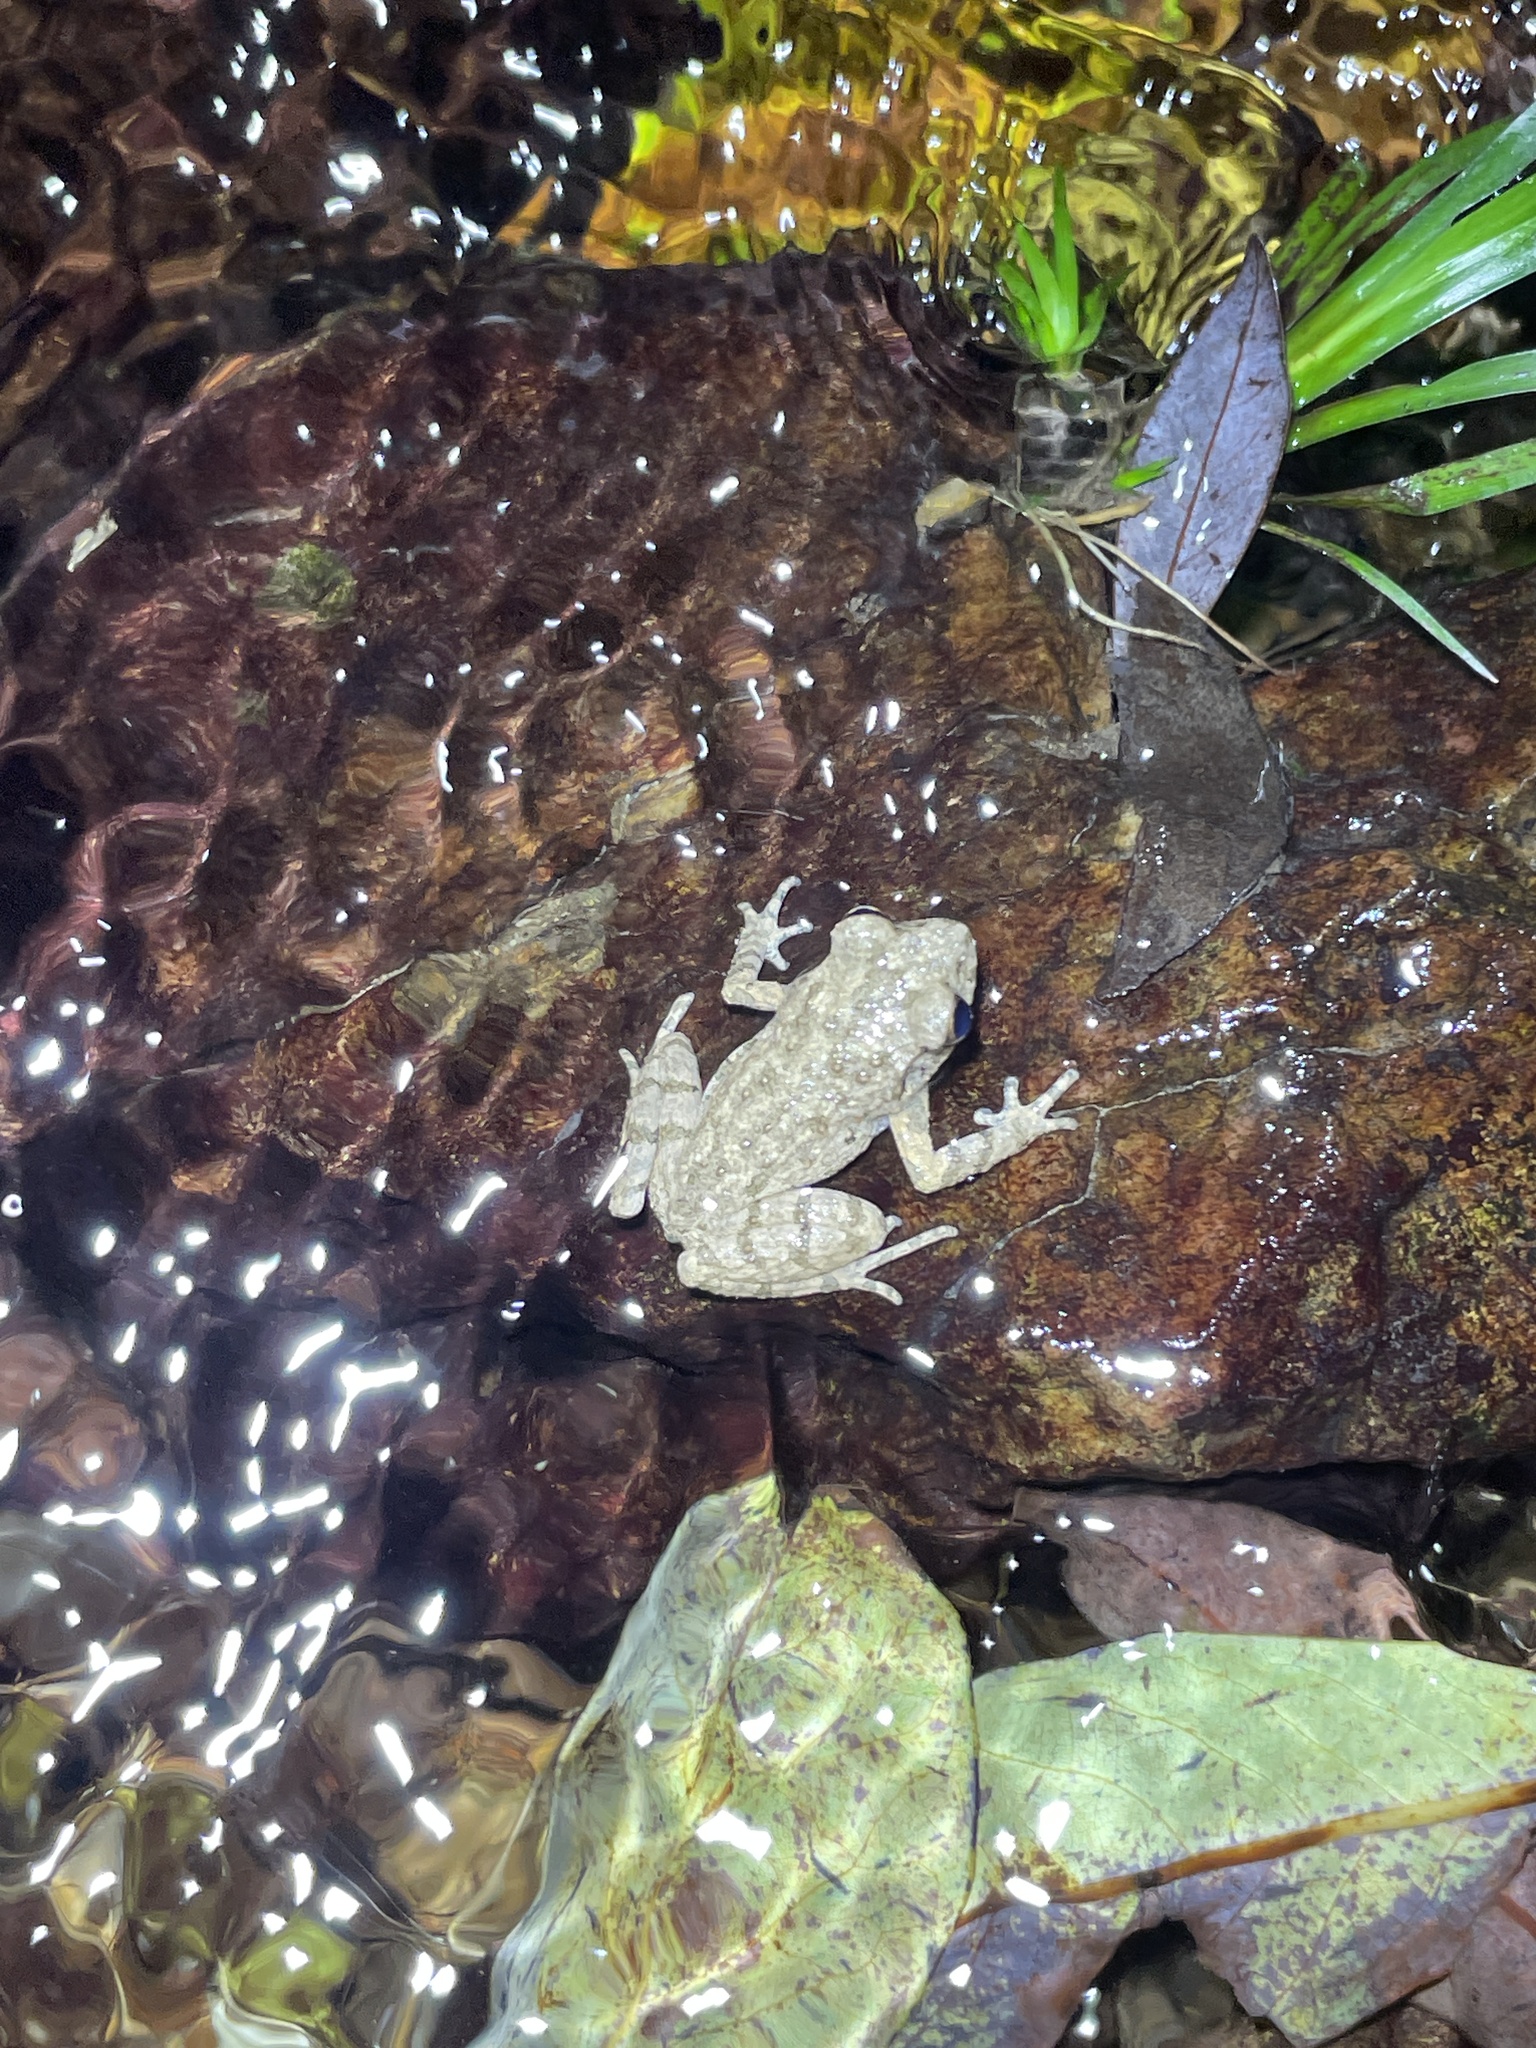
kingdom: Animalia
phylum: Chordata
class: Amphibia
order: Anura
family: Megophryidae
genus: Leptobrachella
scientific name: Leptobrachella laui
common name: Lau's leaf little toad
